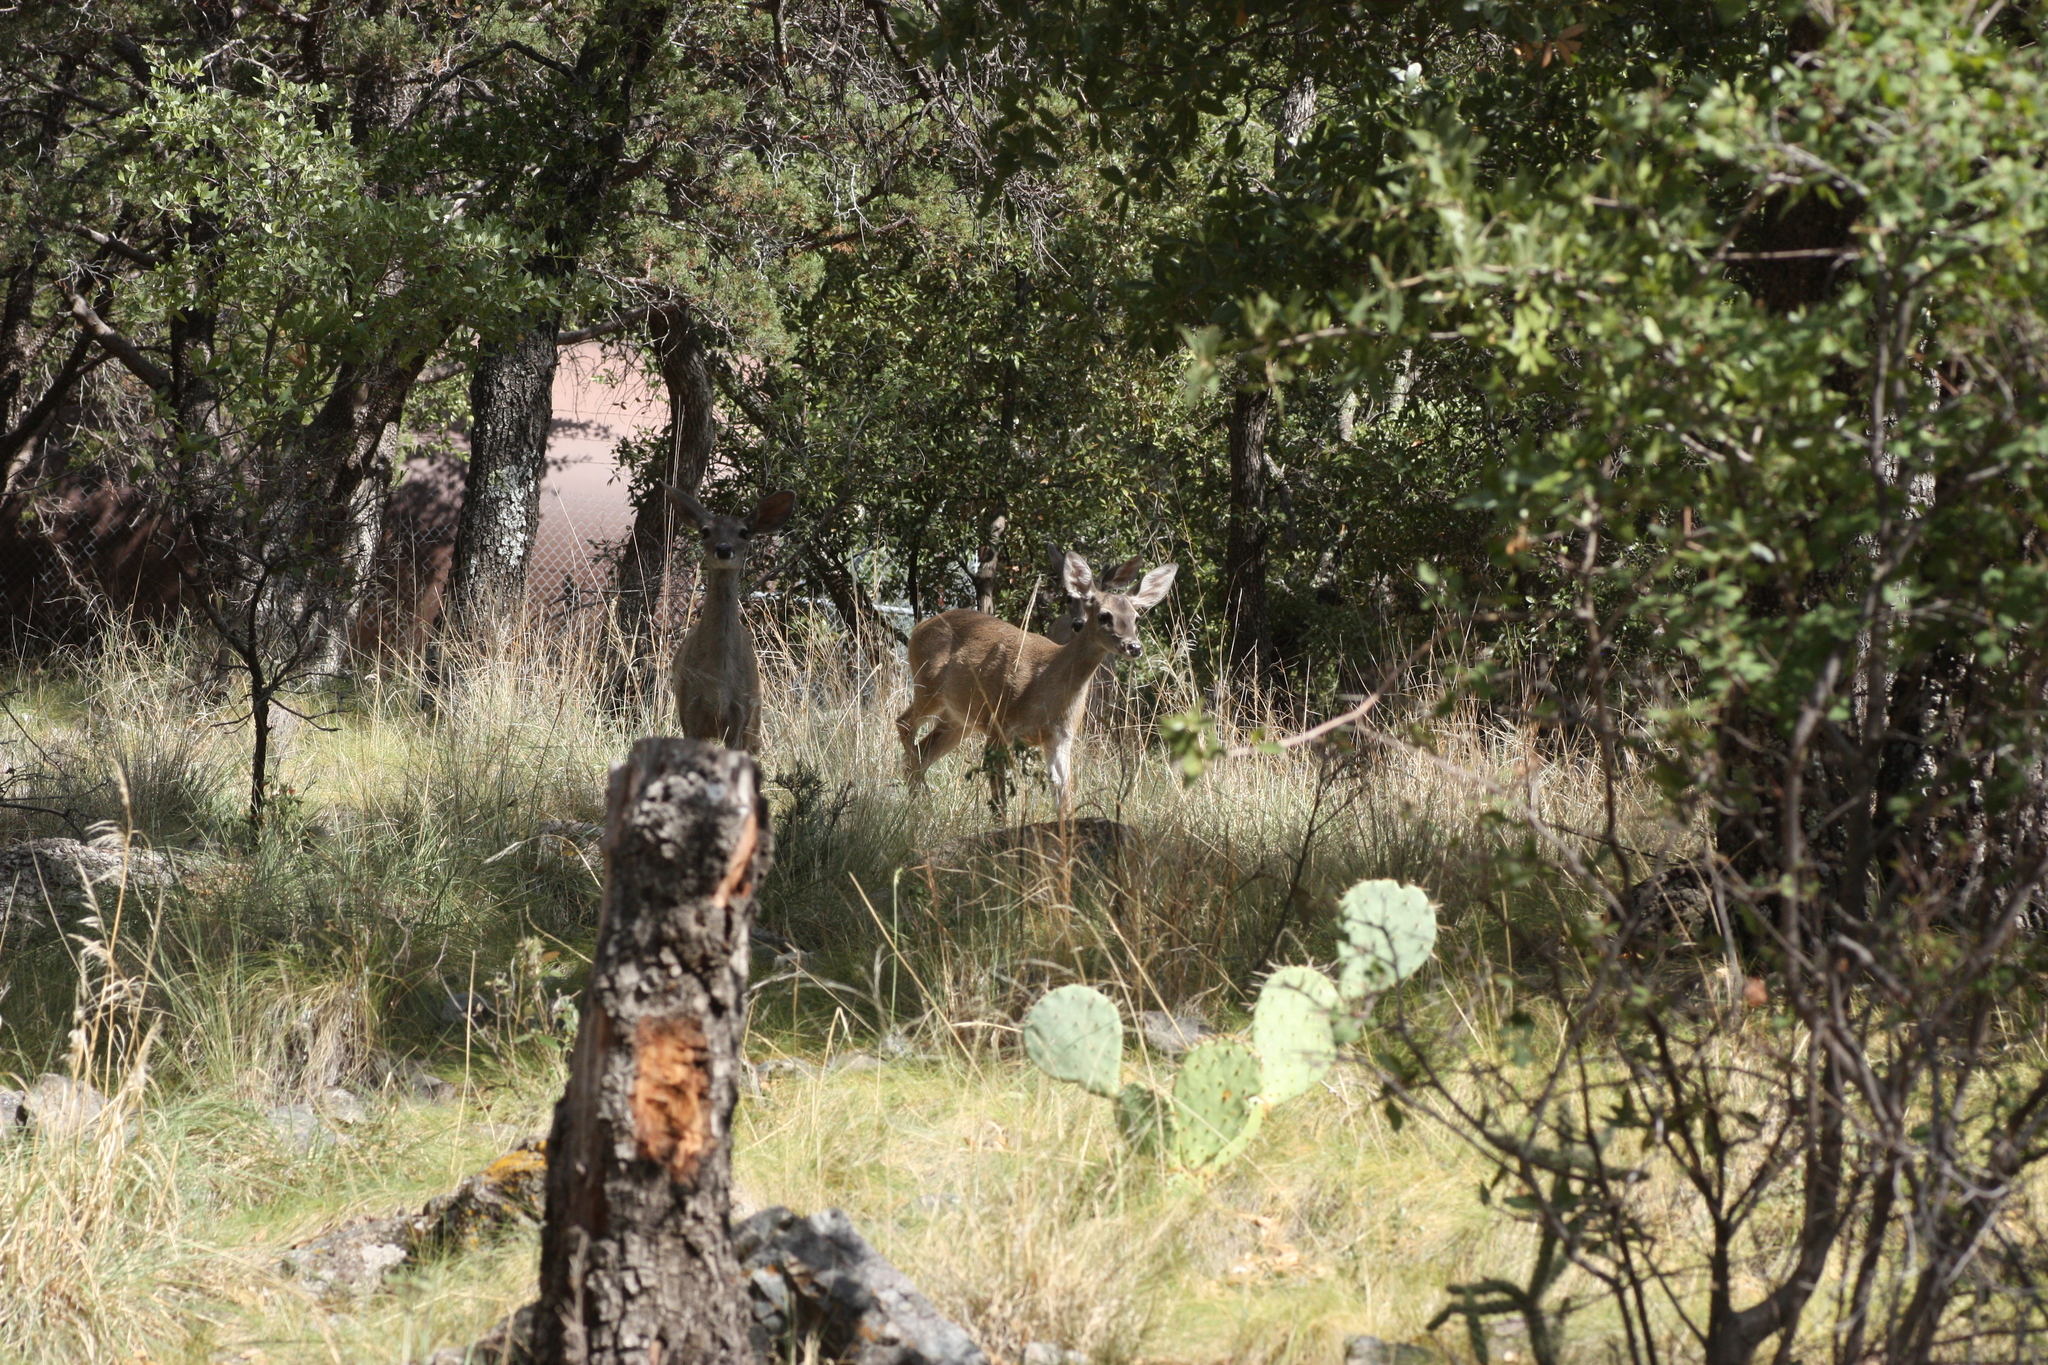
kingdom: Animalia
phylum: Chordata
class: Mammalia
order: Artiodactyla
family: Cervidae
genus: Odocoileus
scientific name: Odocoileus virginianus
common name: White-tailed deer
